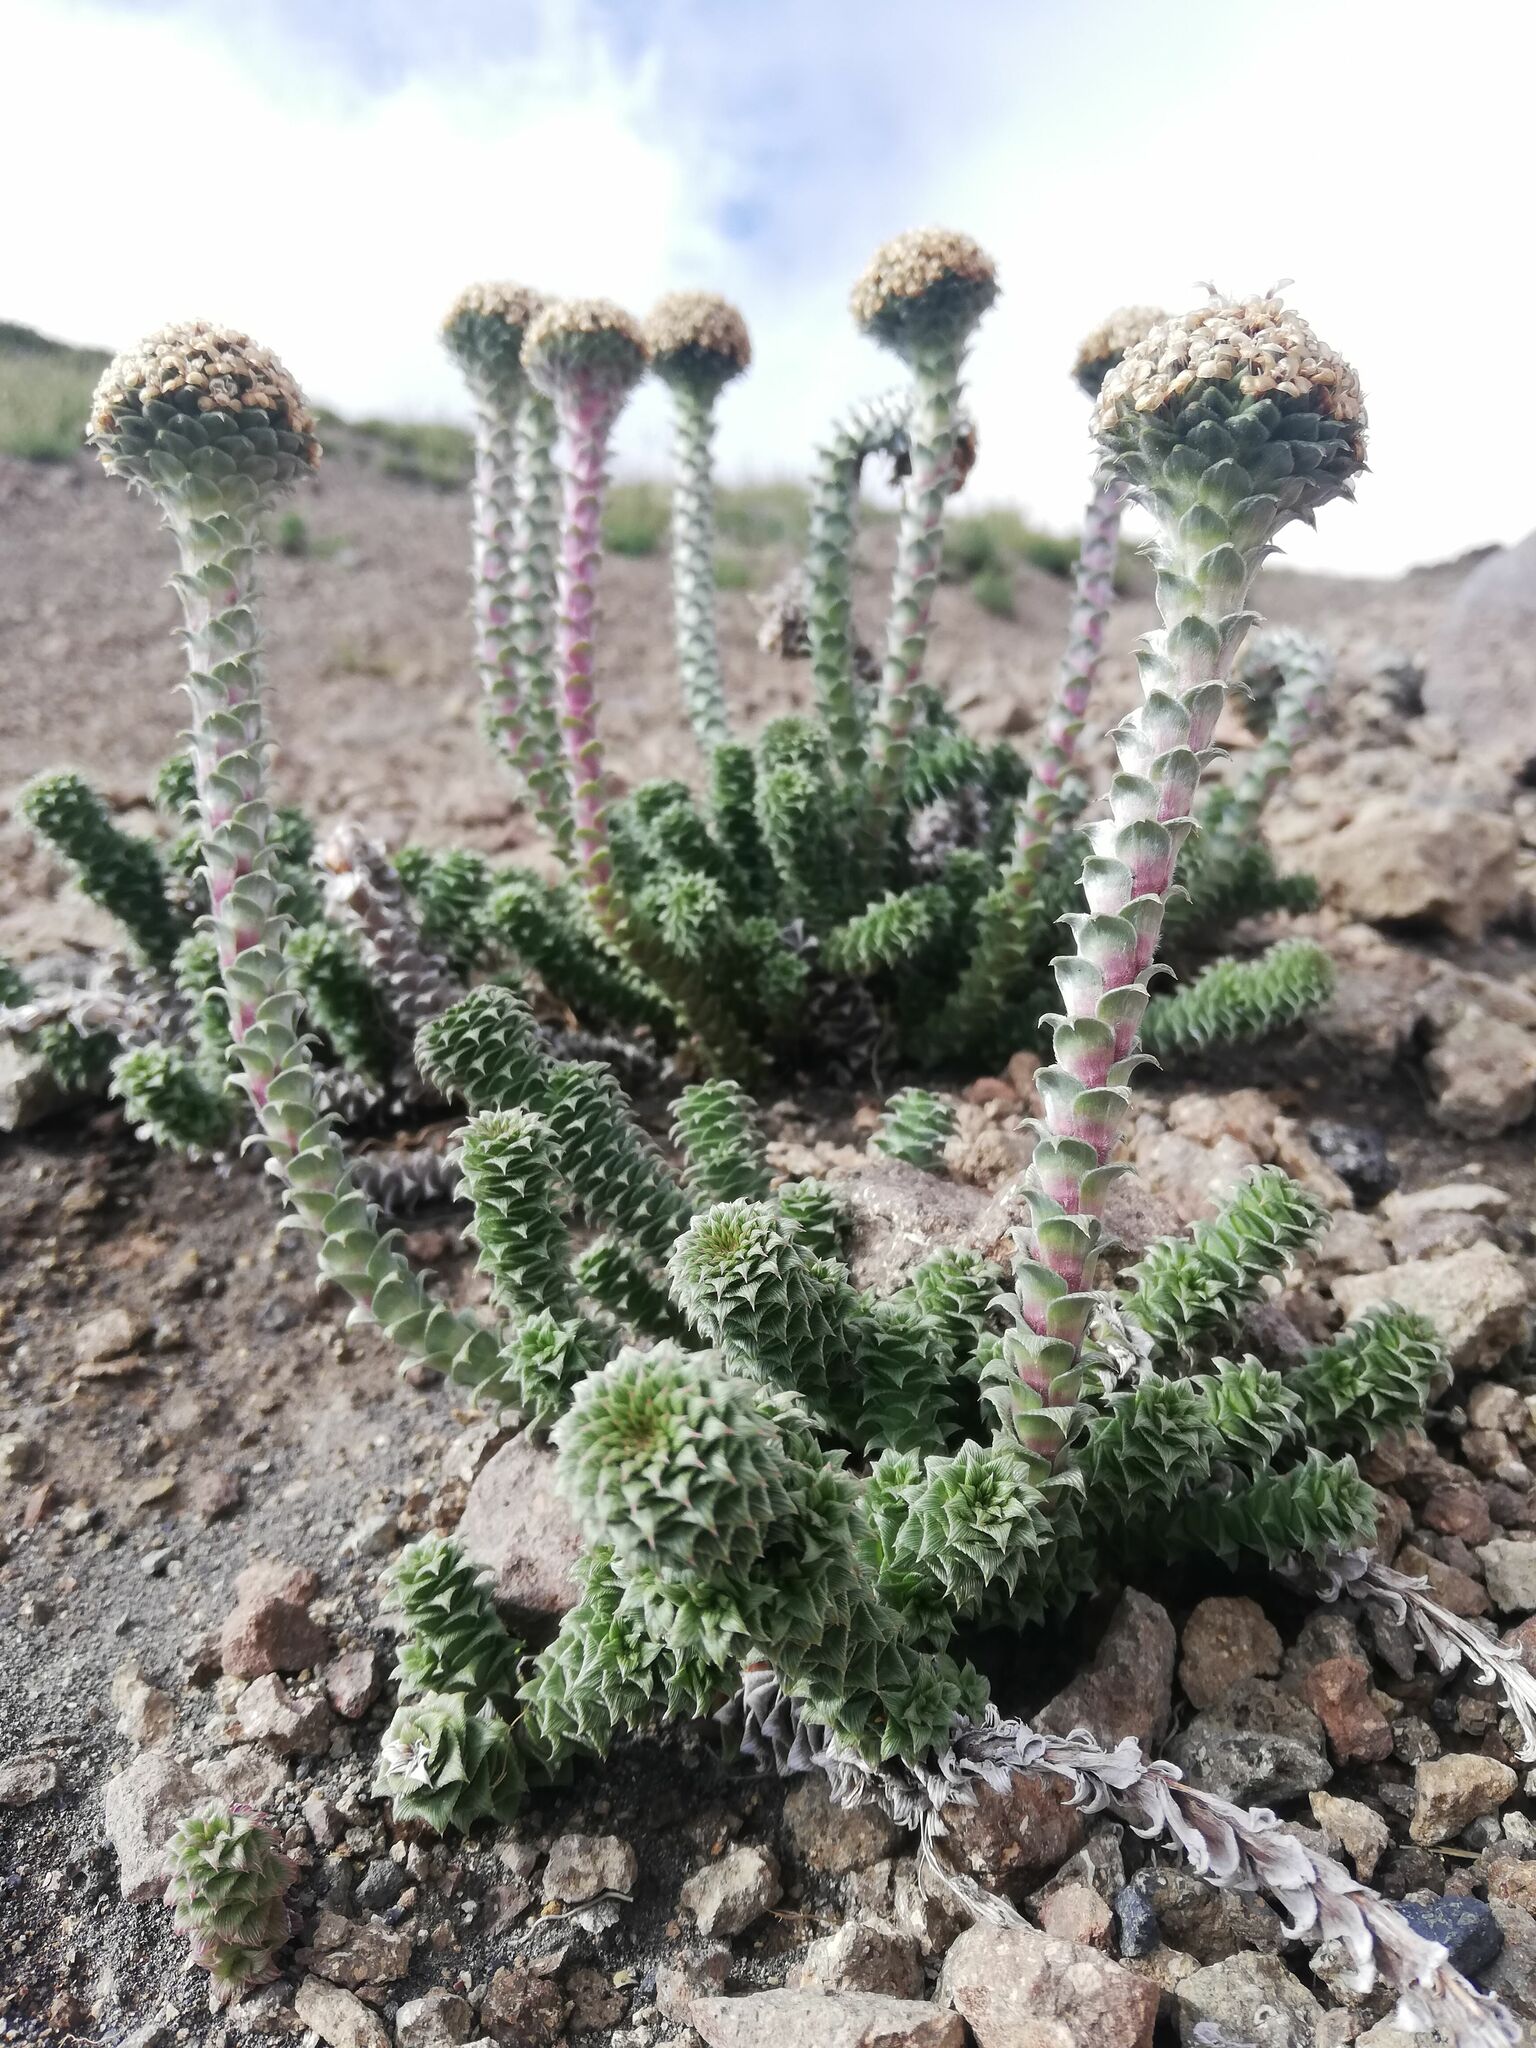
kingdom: Plantae
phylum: Tracheophyta
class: Magnoliopsida
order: Asterales
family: Asteraceae
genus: Nassauvia
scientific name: Nassauvia revoluta
